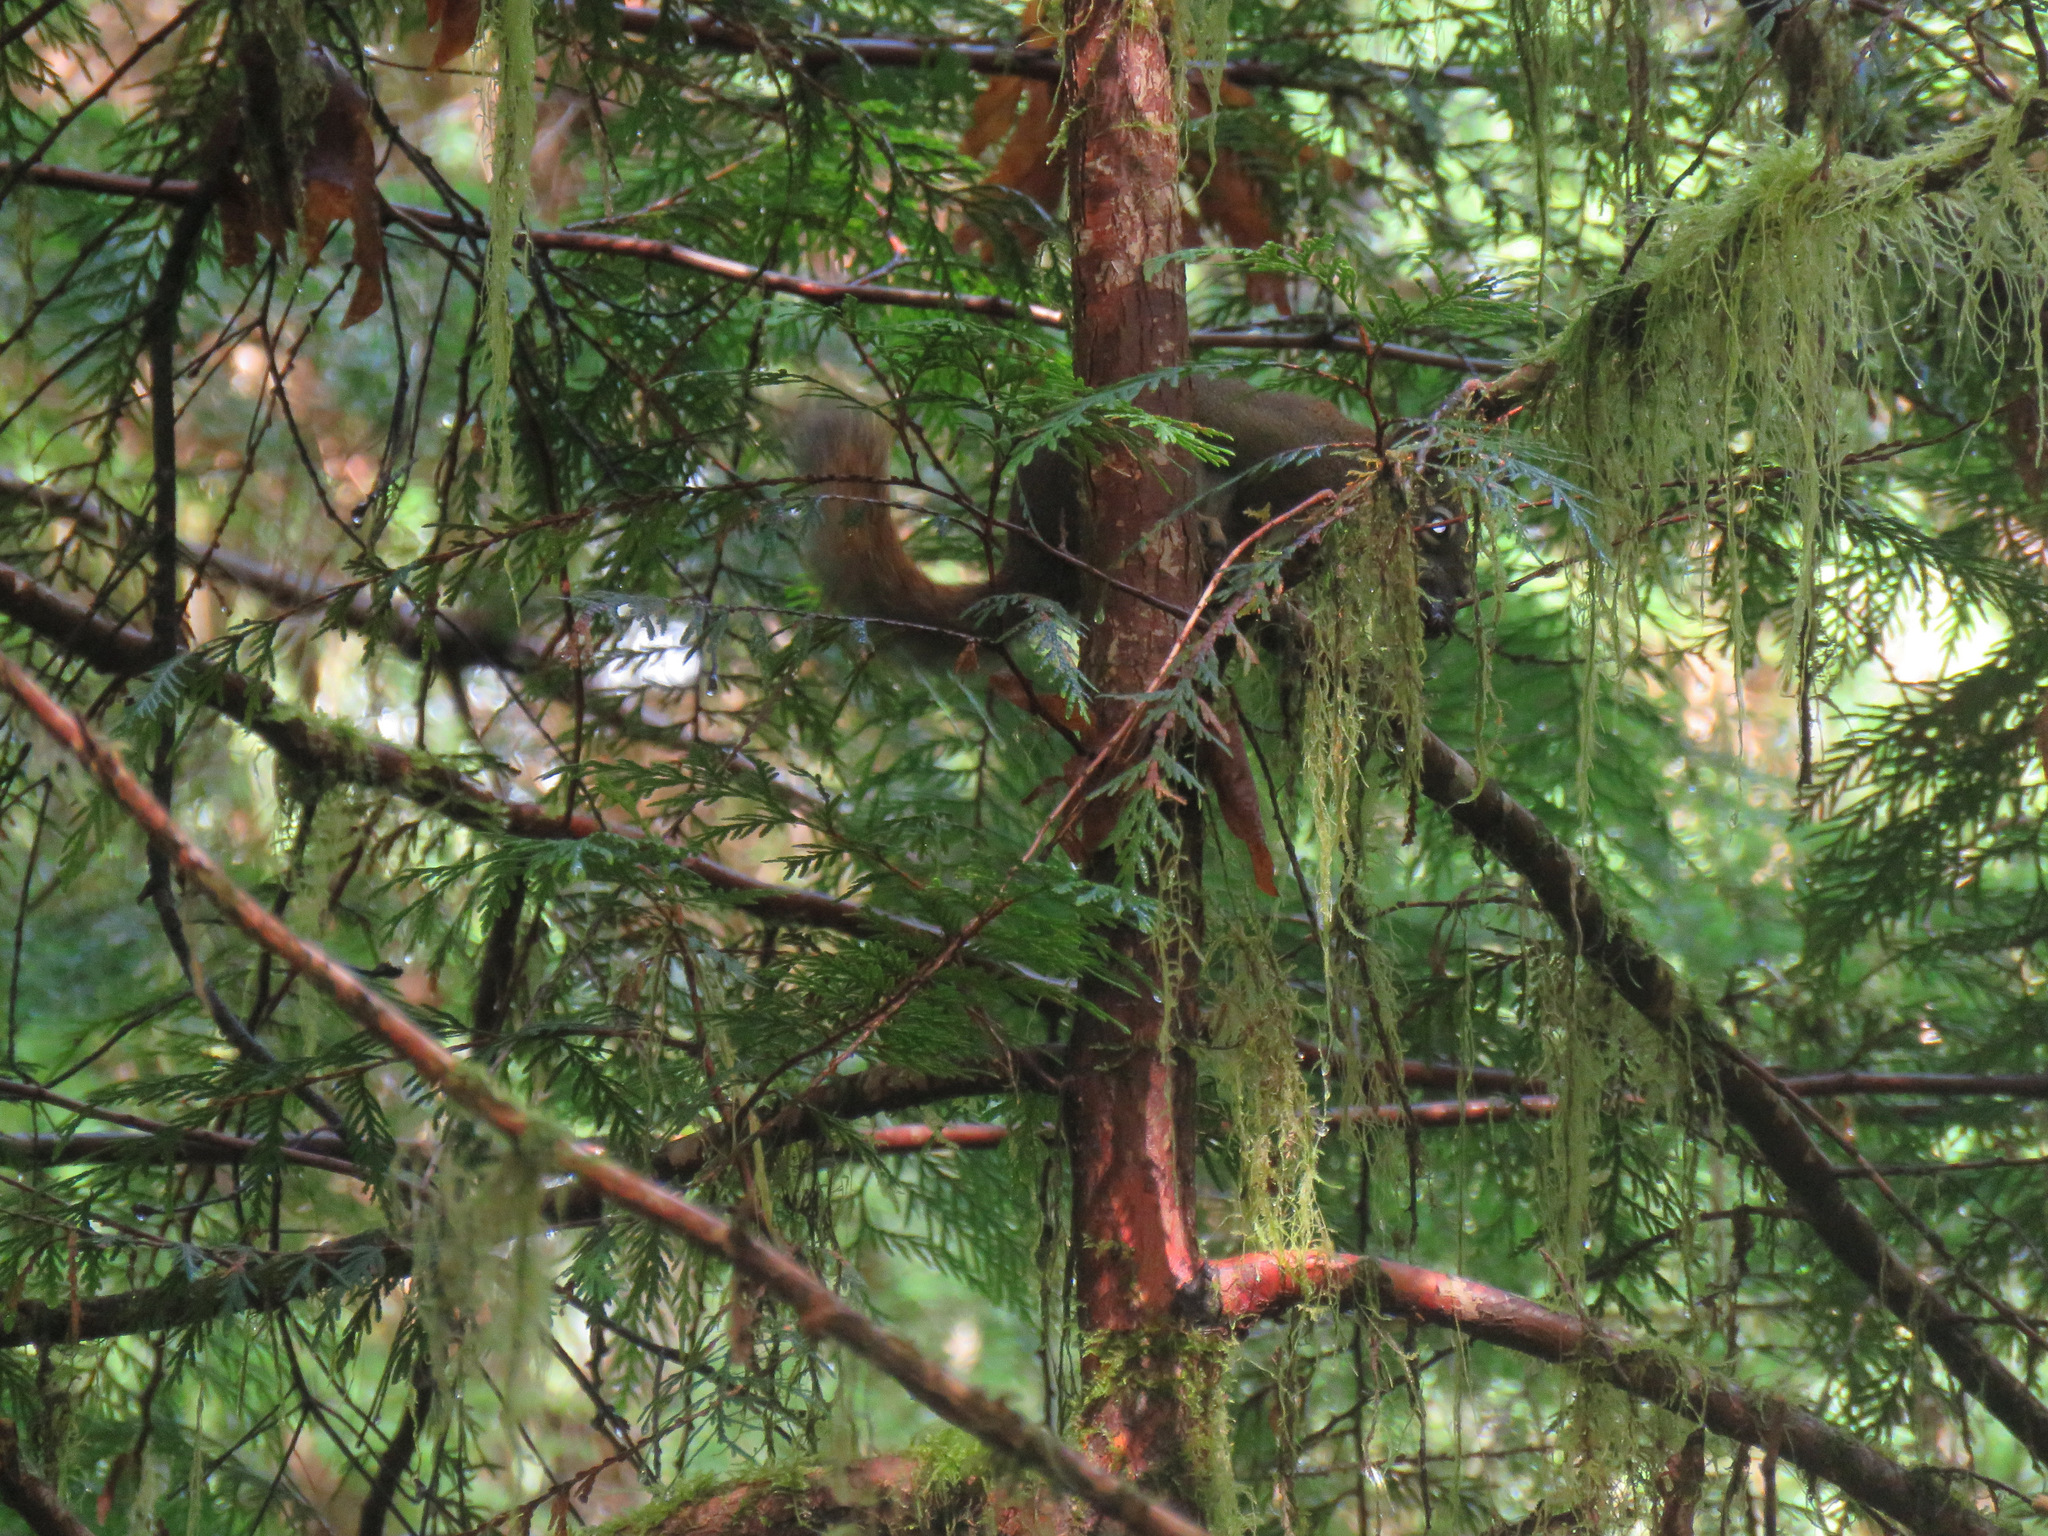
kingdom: Animalia
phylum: Chordata
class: Mammalia
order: Rodentia
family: Sciuridae
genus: Tamiasciurus
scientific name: Tamiasciurus hudsonicus
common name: Red squirrel
